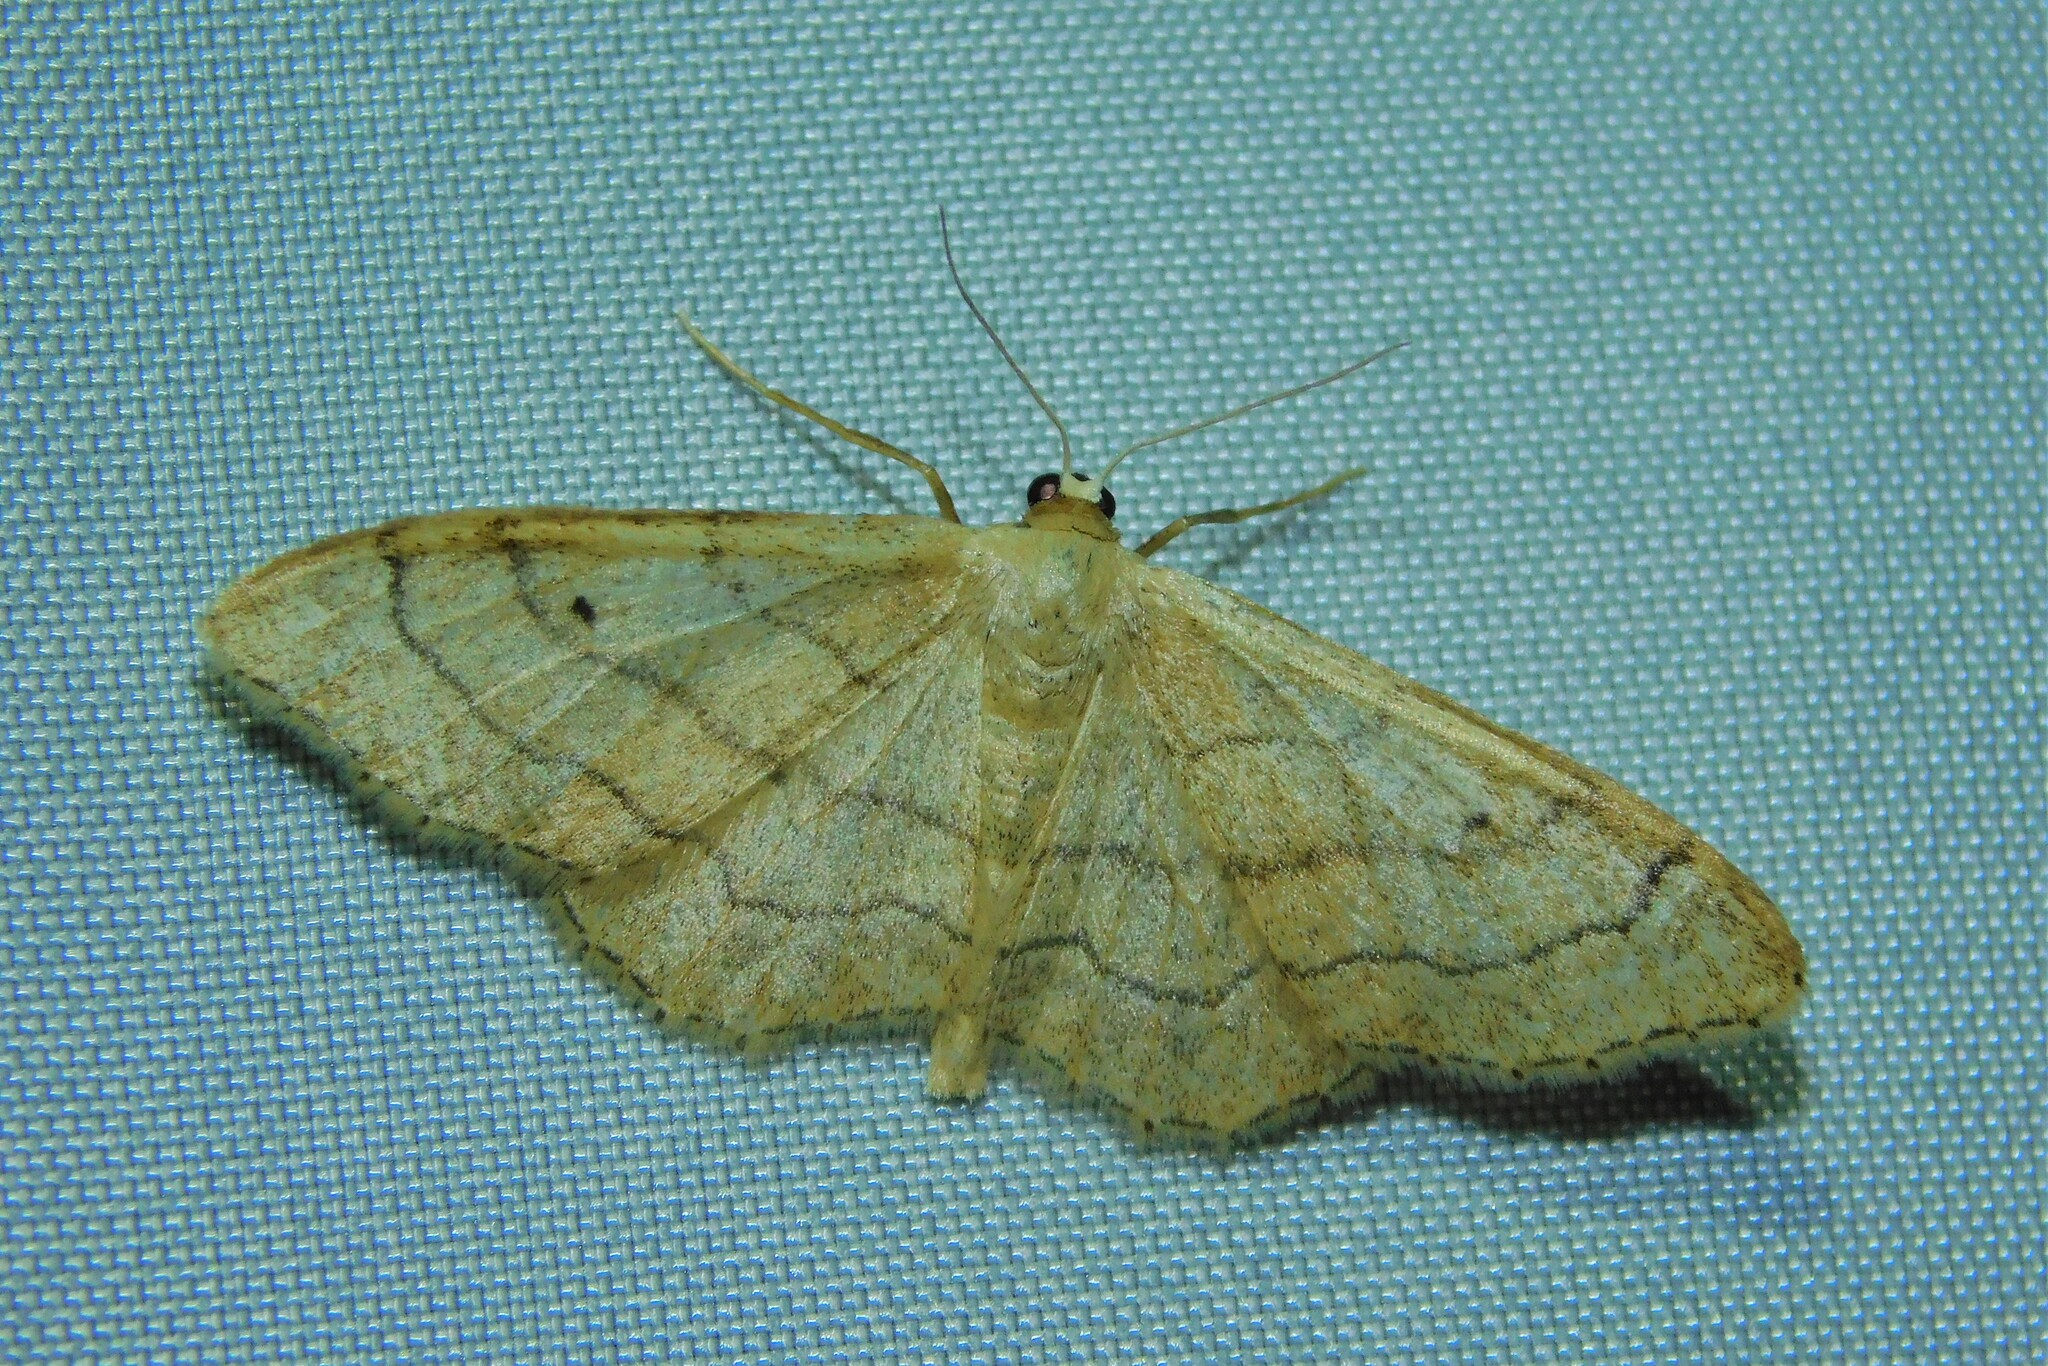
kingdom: Animalia
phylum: Arthropoda
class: Insecta
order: Lepidoptera
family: Geometridae
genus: Idaea
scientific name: Idaea aversata
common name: Riband wave
